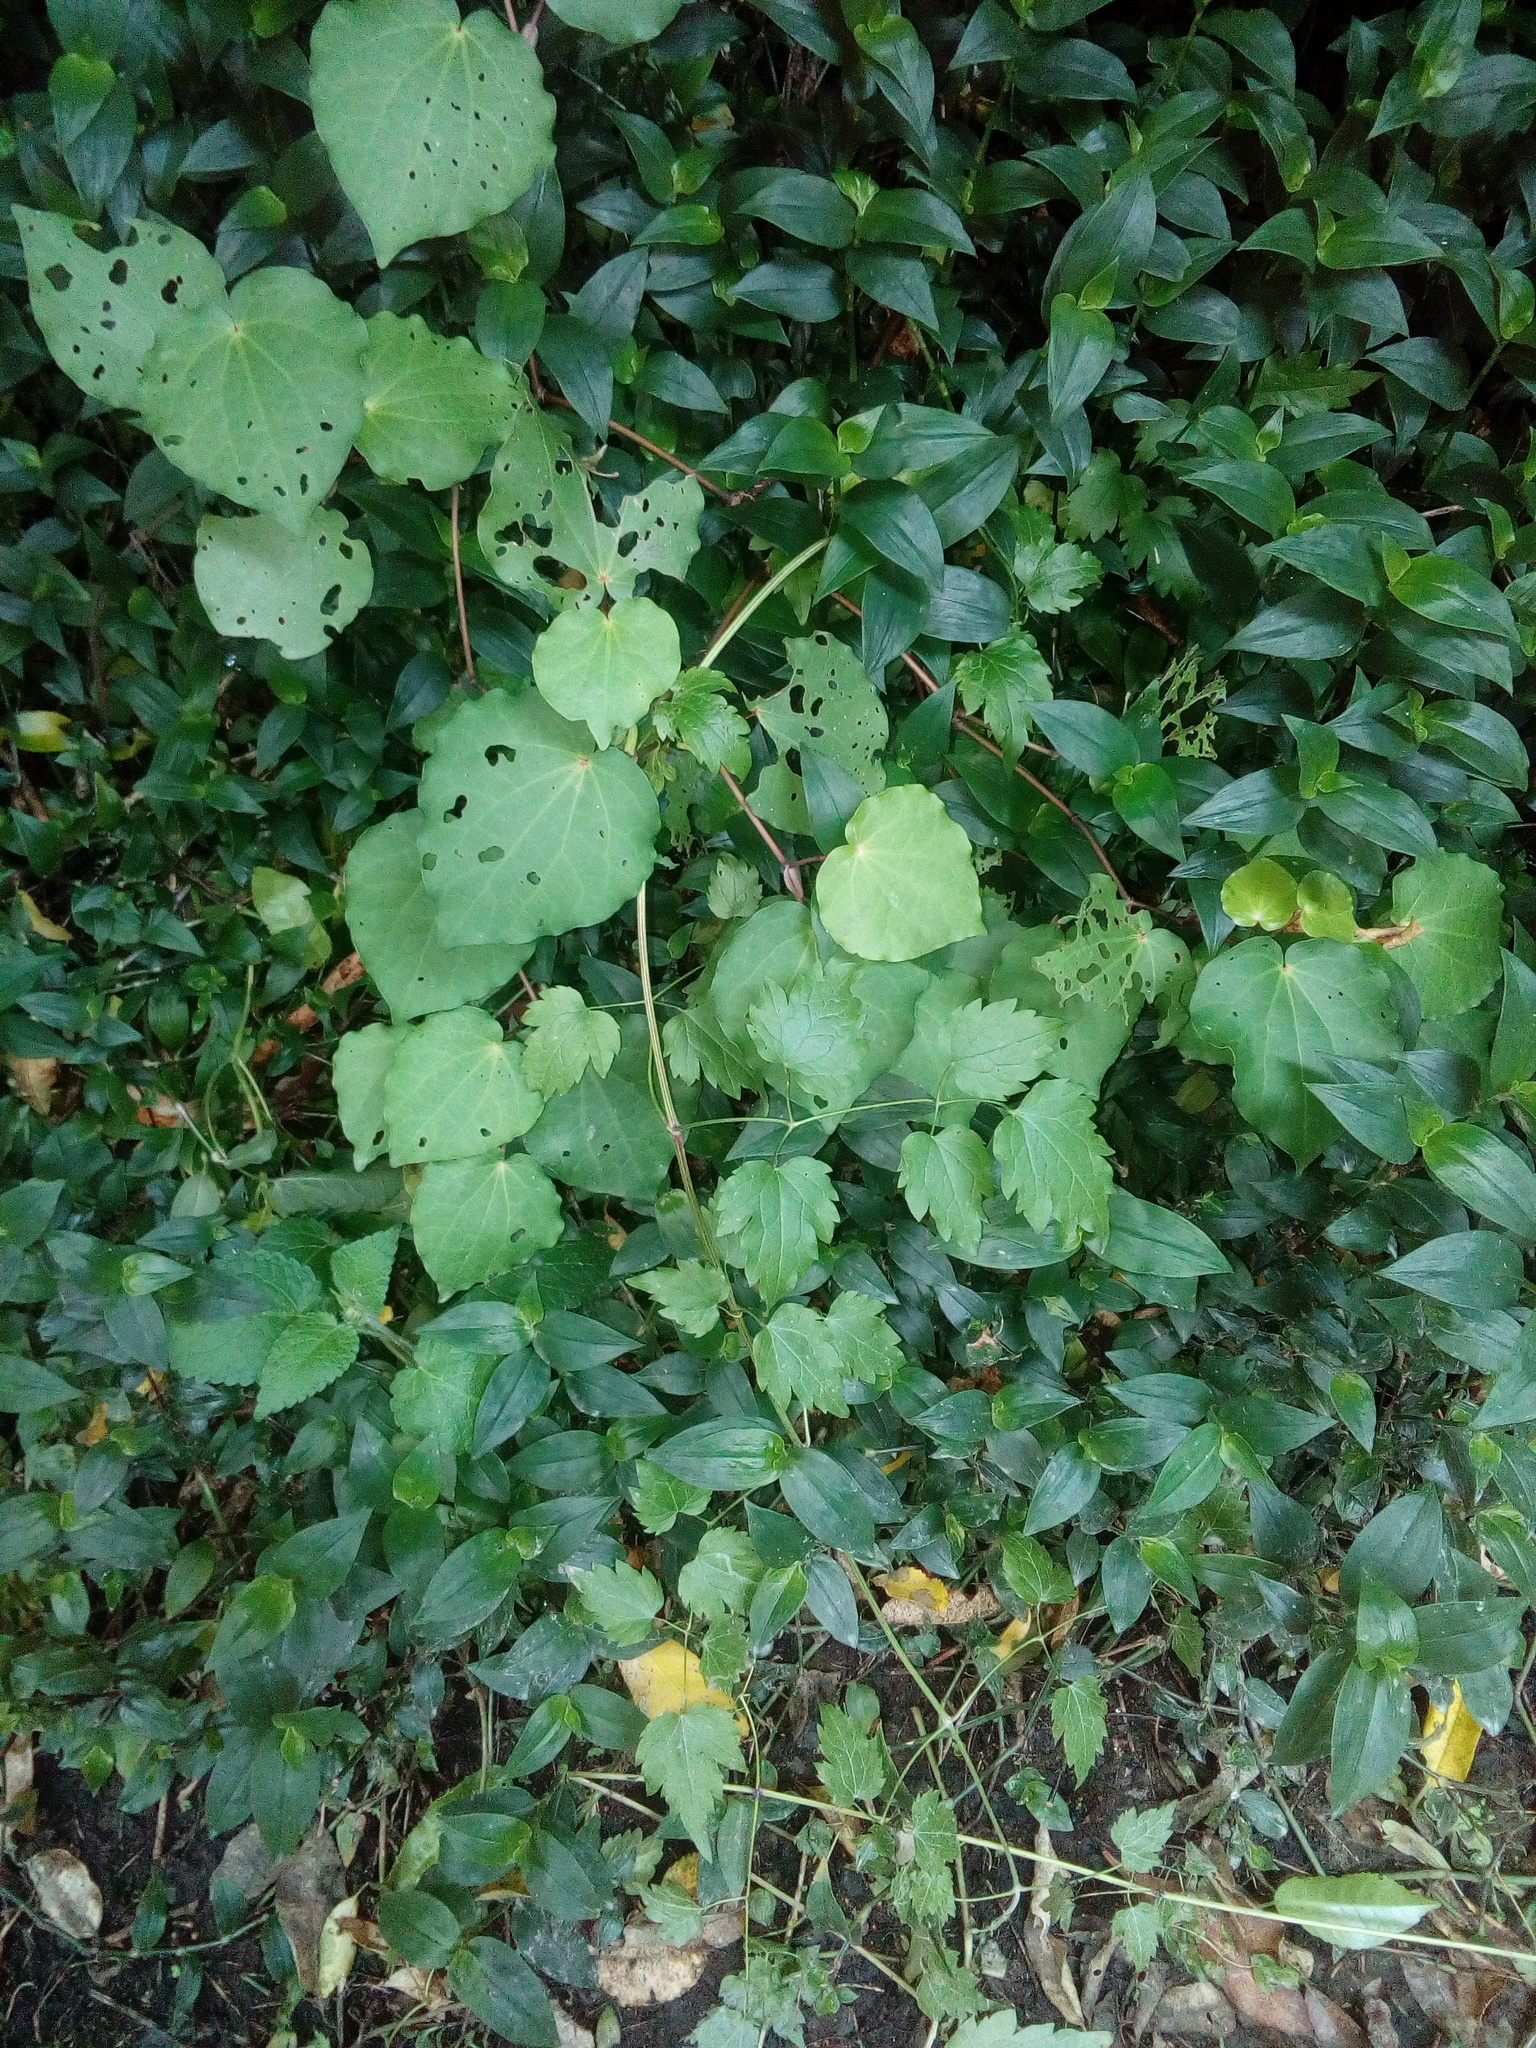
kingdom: Plantae
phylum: Tracheophyta
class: Magnoliopsida
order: Ranunculales
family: Ranunculaceae
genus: Clematis
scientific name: Clematis vitalba
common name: Evergreen clematis
